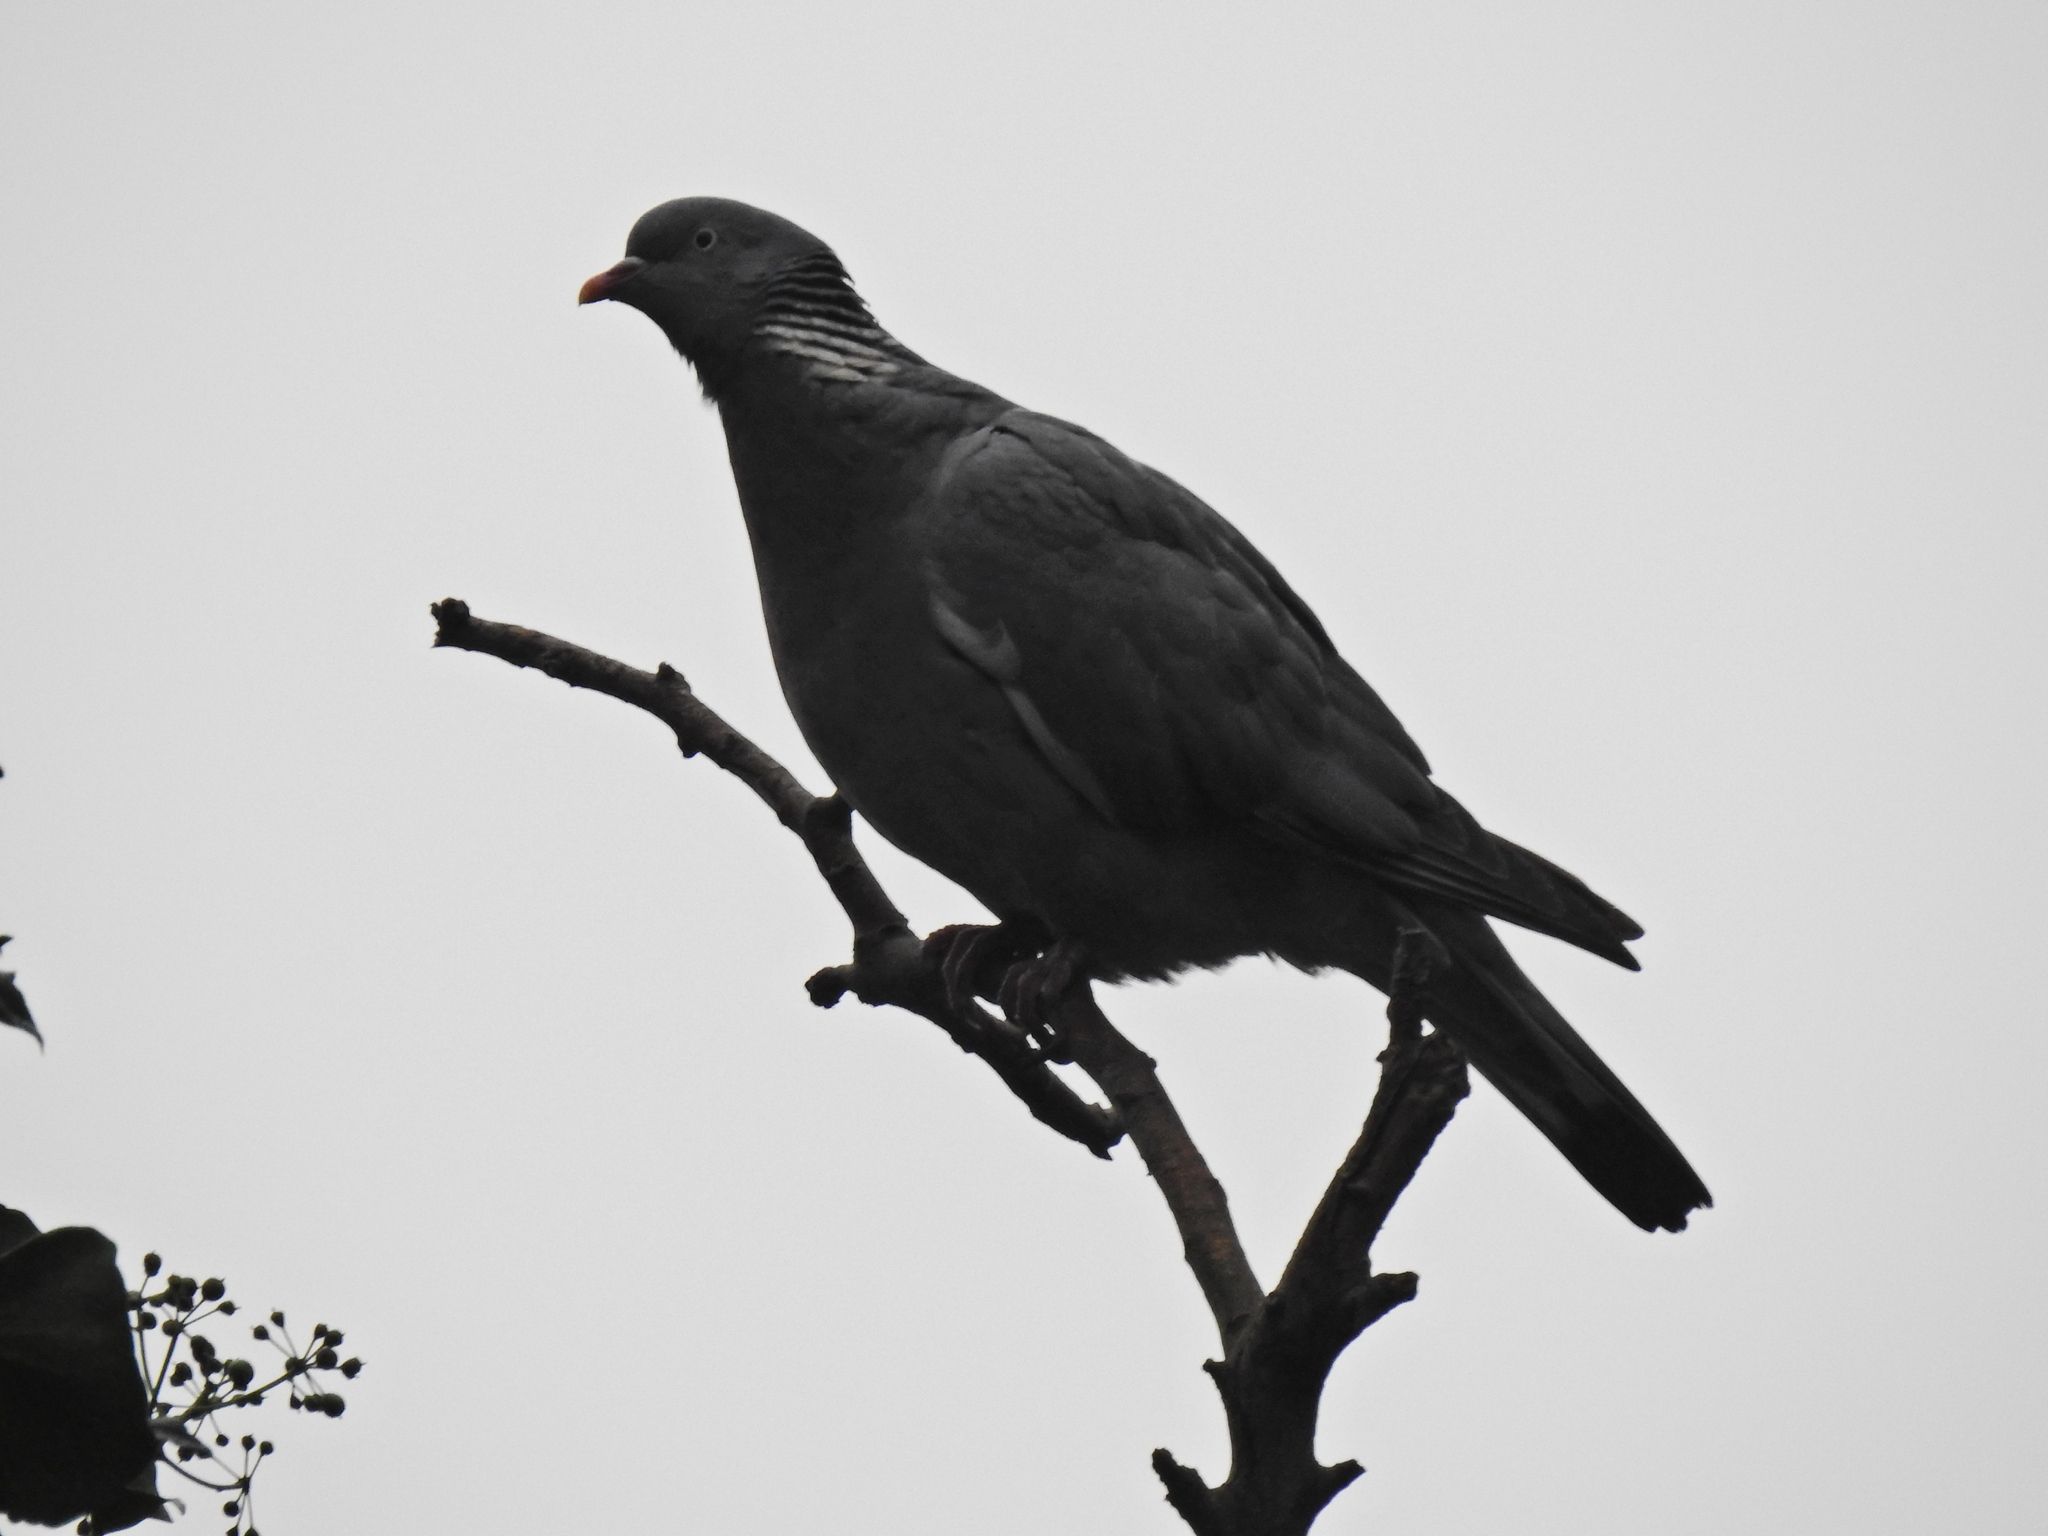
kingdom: Animalia
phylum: Chordata
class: Aves
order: Columbiformes
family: Columbidae
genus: Columba
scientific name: Columba palumbus
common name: Common wood pigeon
